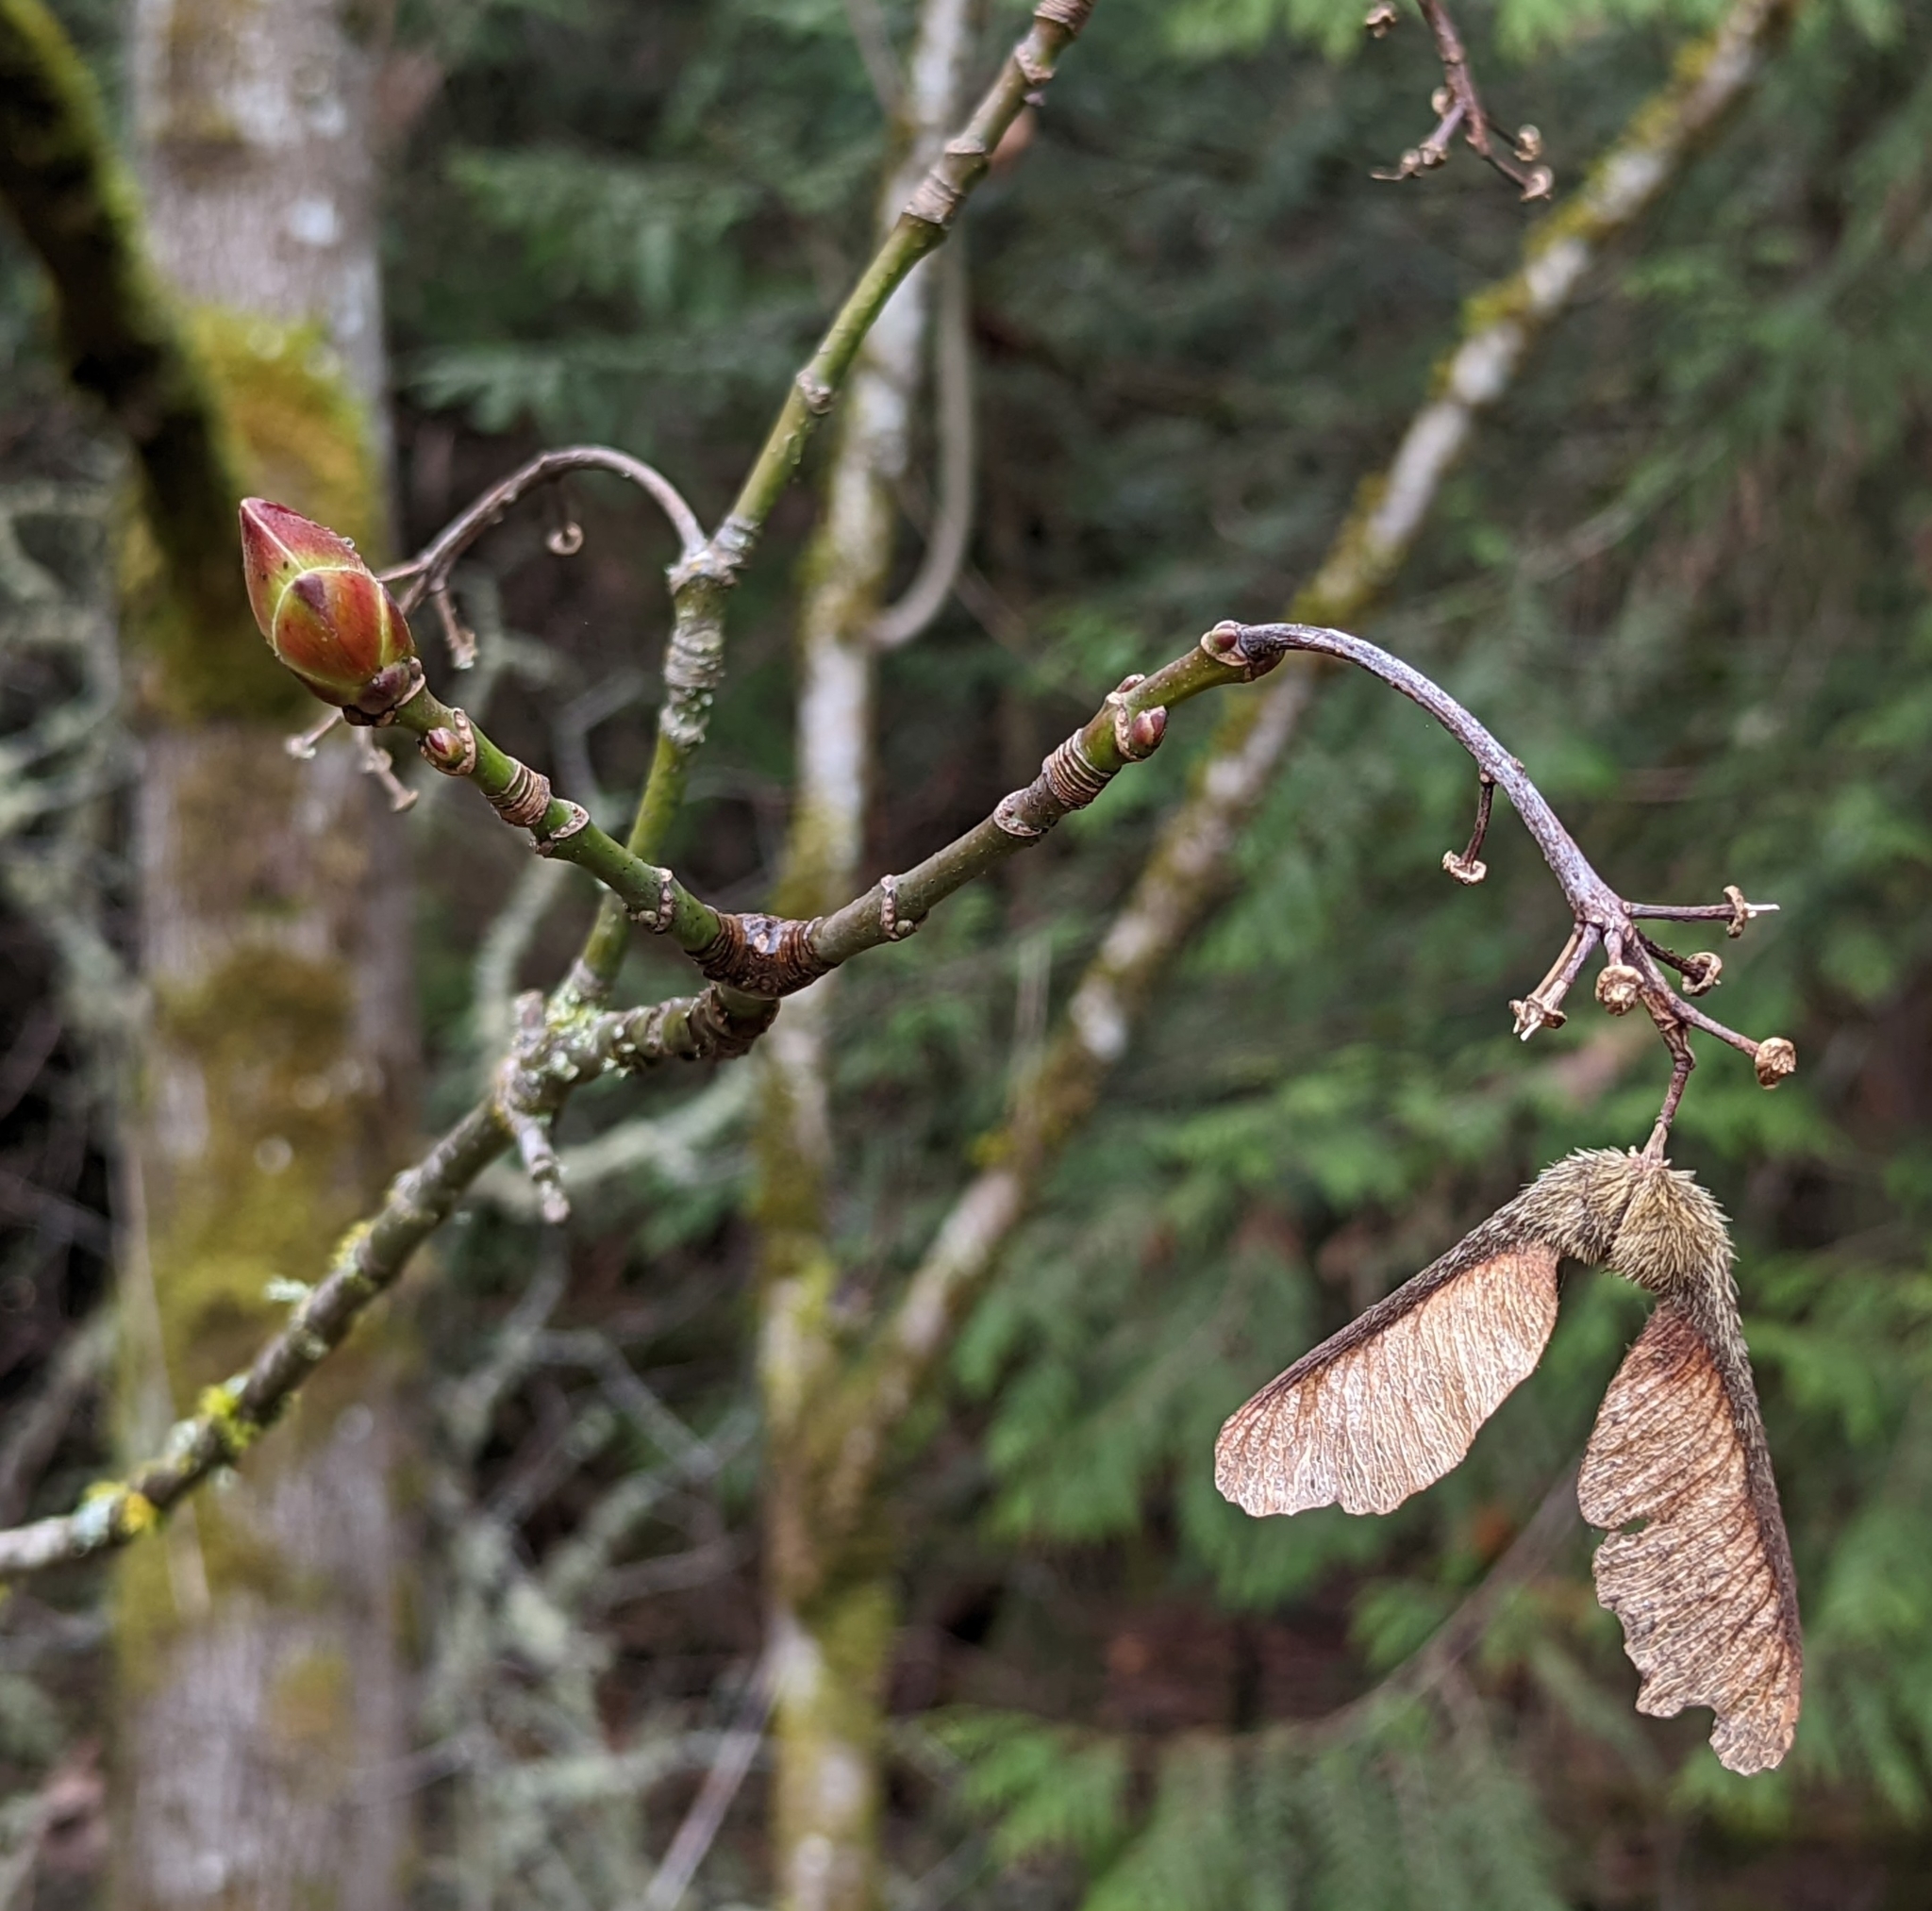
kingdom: Plantae
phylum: Tracheophyta
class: Magnoliopsida
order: Sapindales
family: Sapindaceae
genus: Acer
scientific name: Acer macrophyllum
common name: Oregon maple
